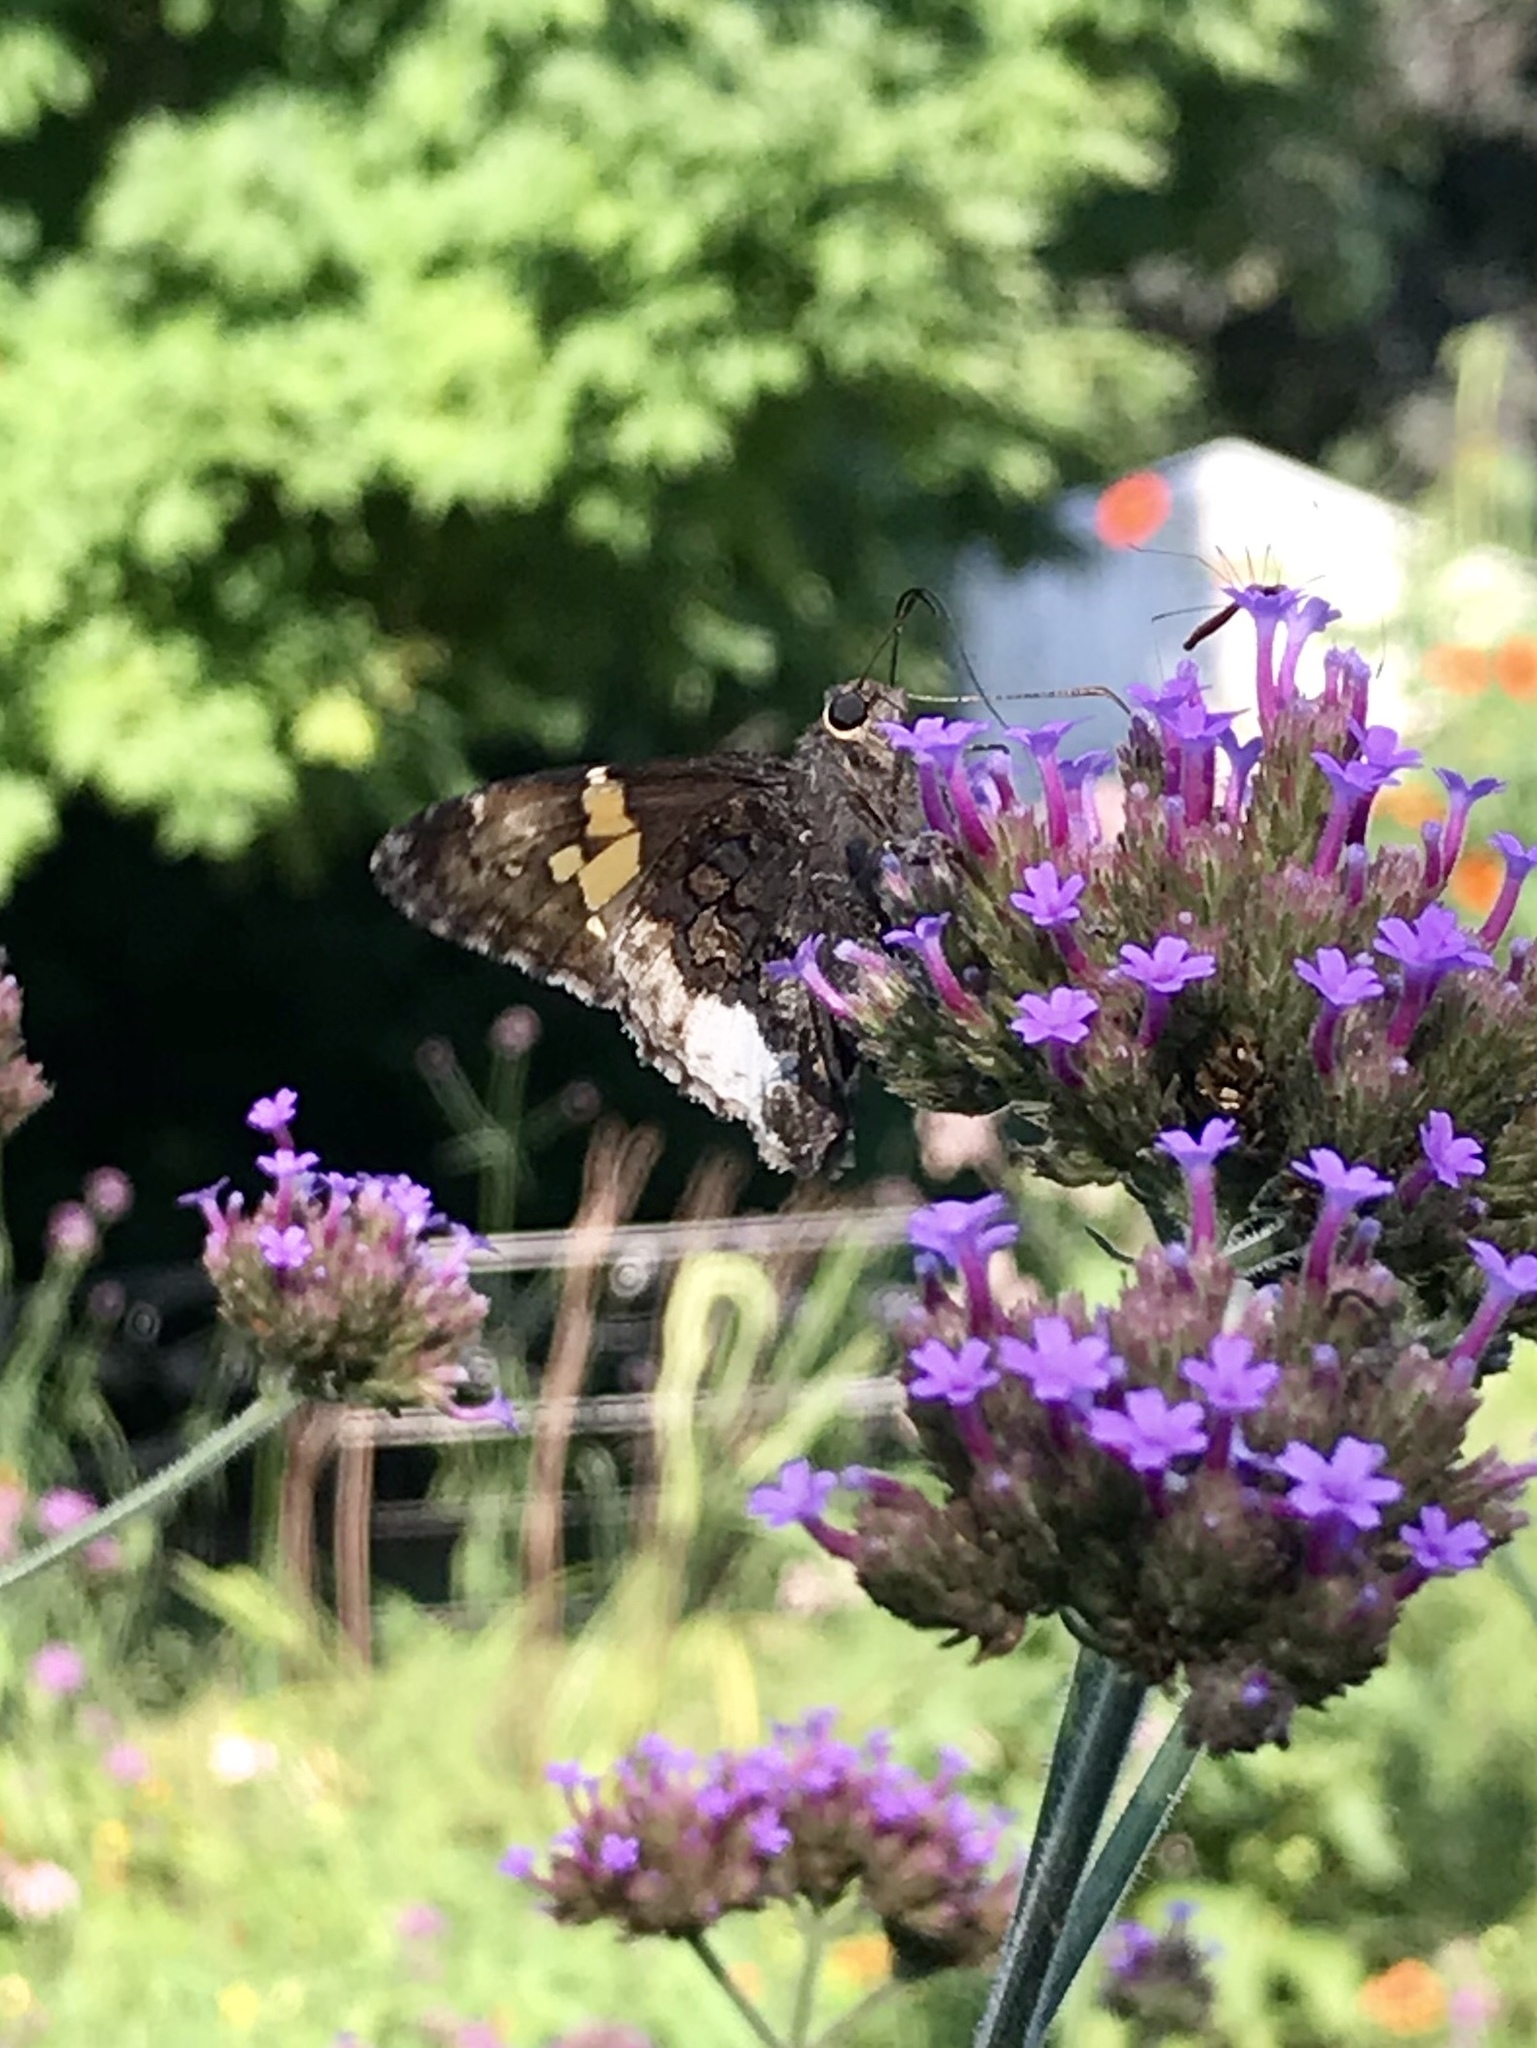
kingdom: Animalia
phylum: Arthropoda
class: Insecta
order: Lepidoptera
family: Hesperiidae
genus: Thorybes
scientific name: Thorybes lyciades
